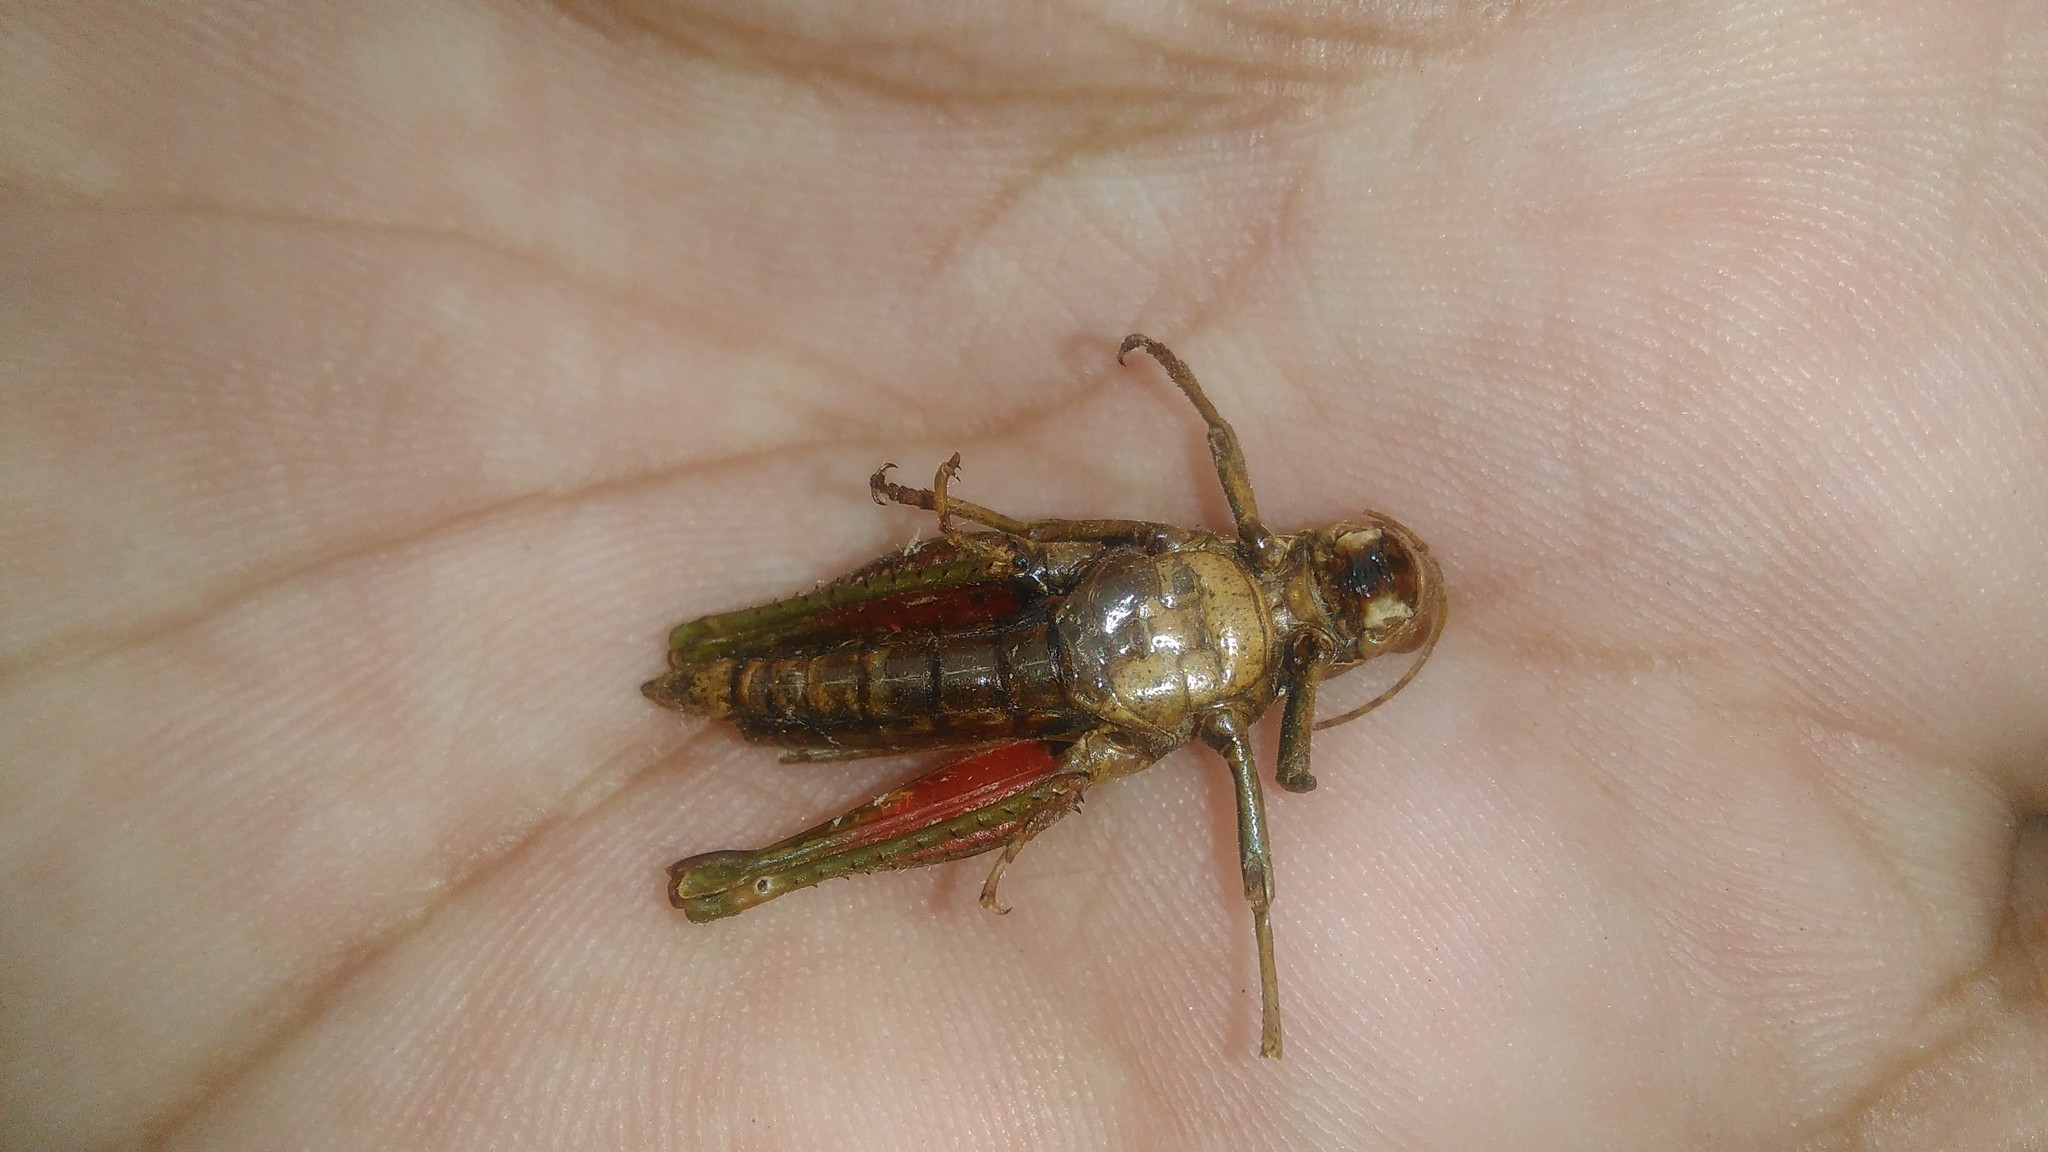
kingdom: Animalia
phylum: Arthropoda
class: Insecta
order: Orthoptera
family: Acrididae
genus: Ronderosia
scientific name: Ronderosia bergii
